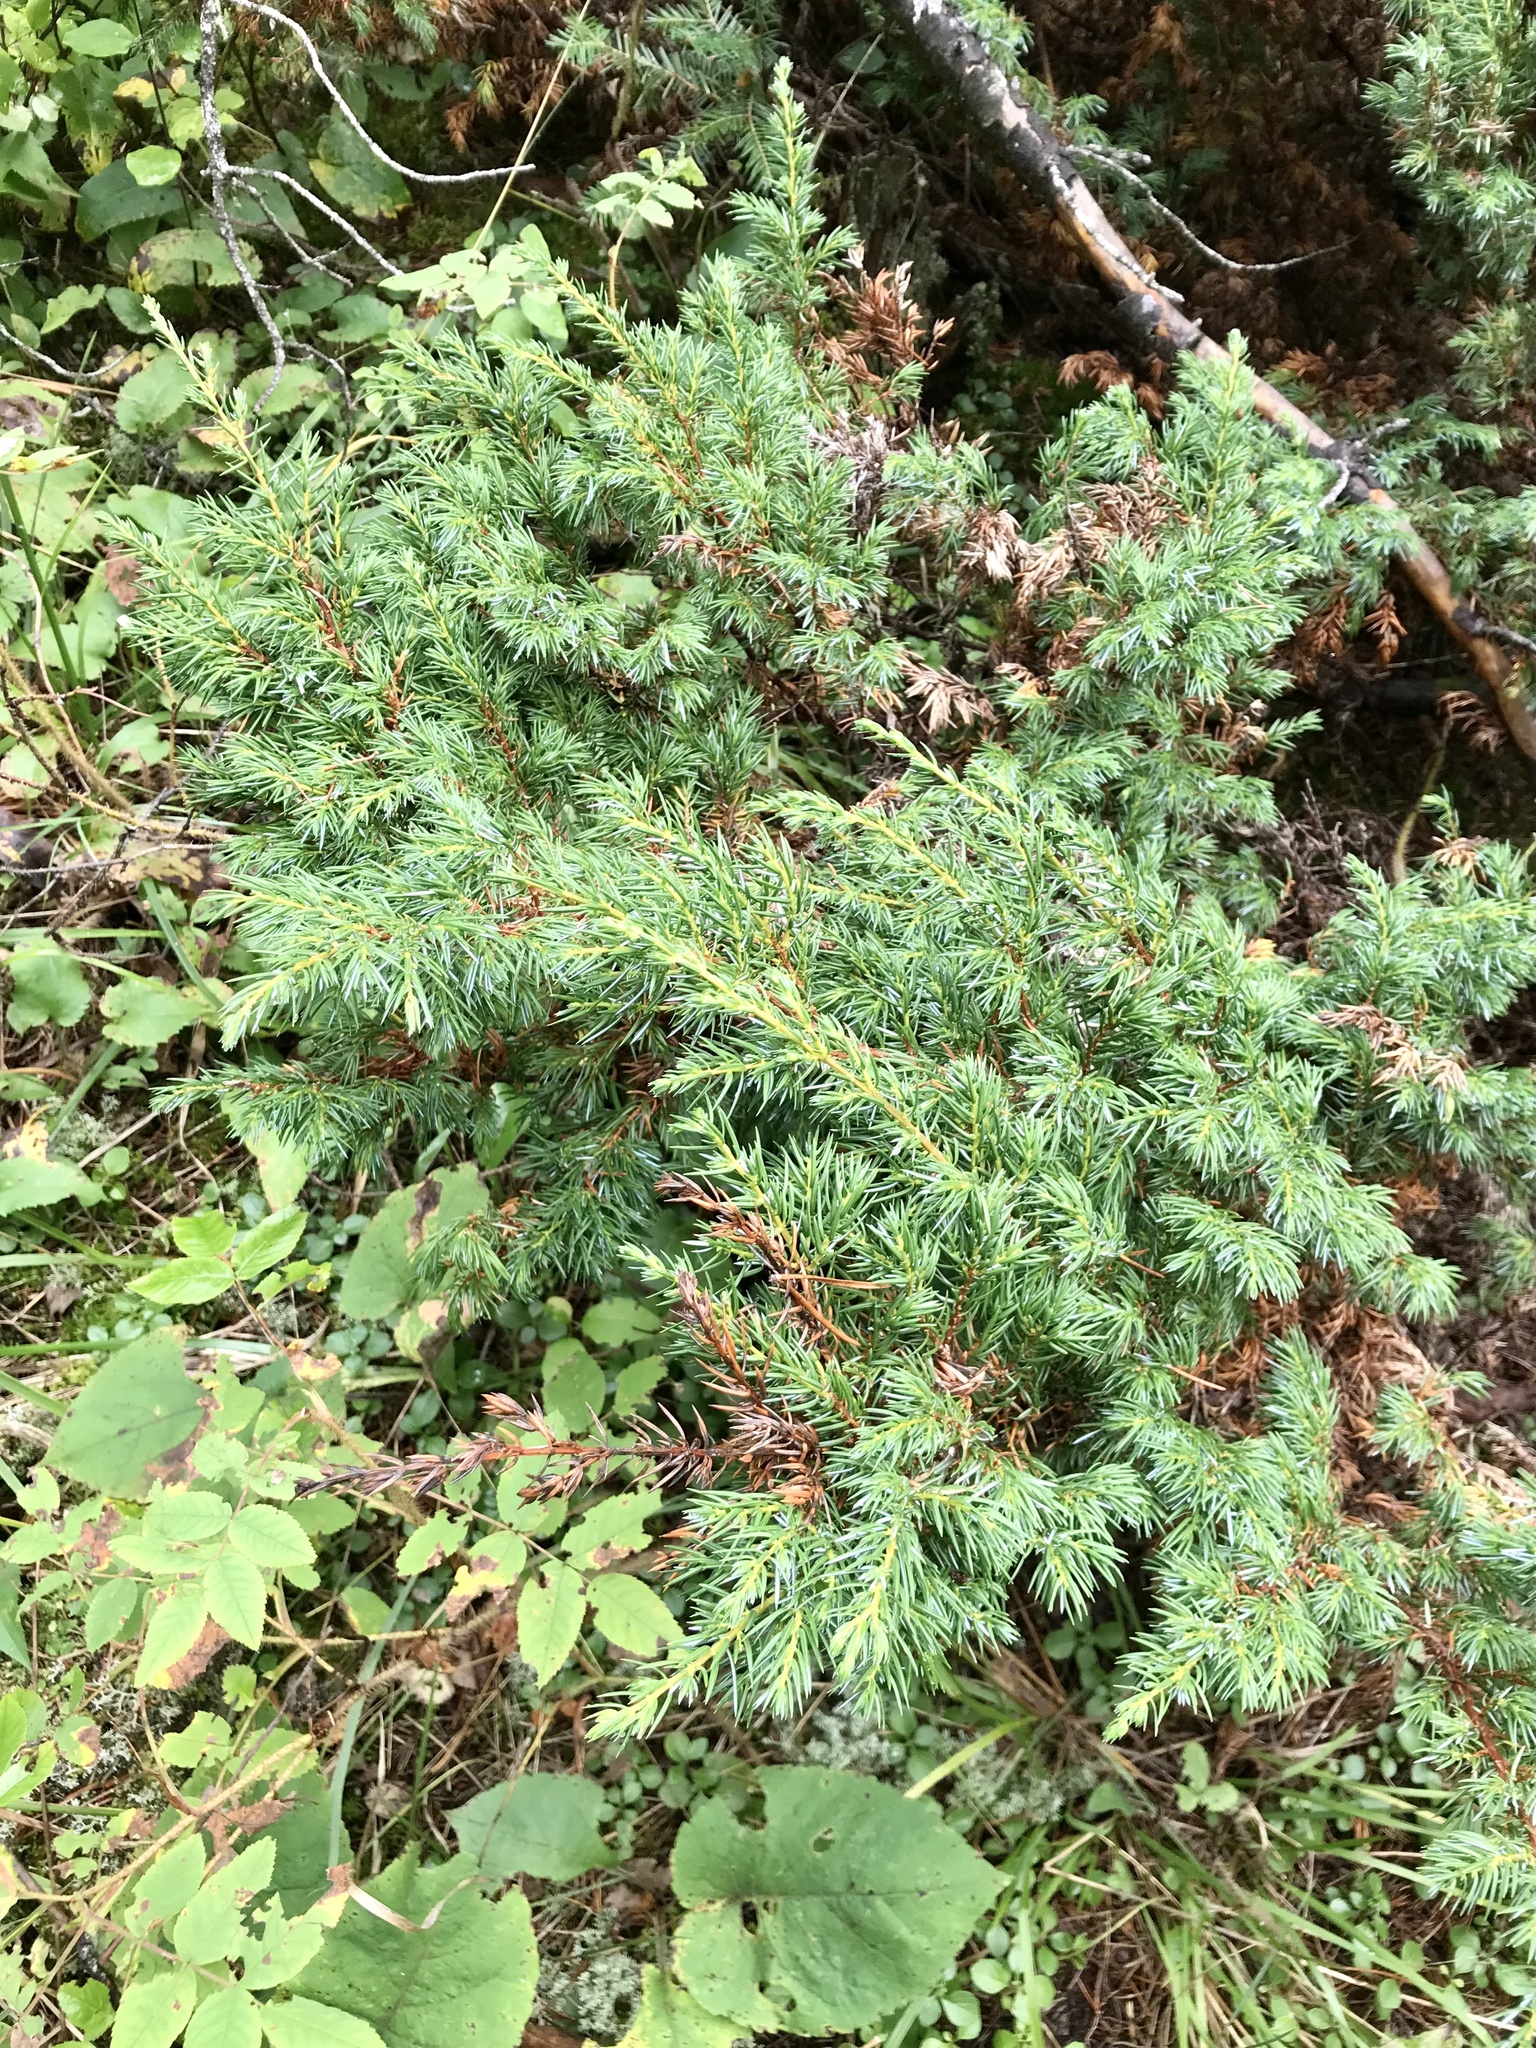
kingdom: Plantae
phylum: Tracheophyta
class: Pinopsida
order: Pinales
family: Cupressaceae
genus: Juniperus
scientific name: Juniperus communis
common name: Common juniper
